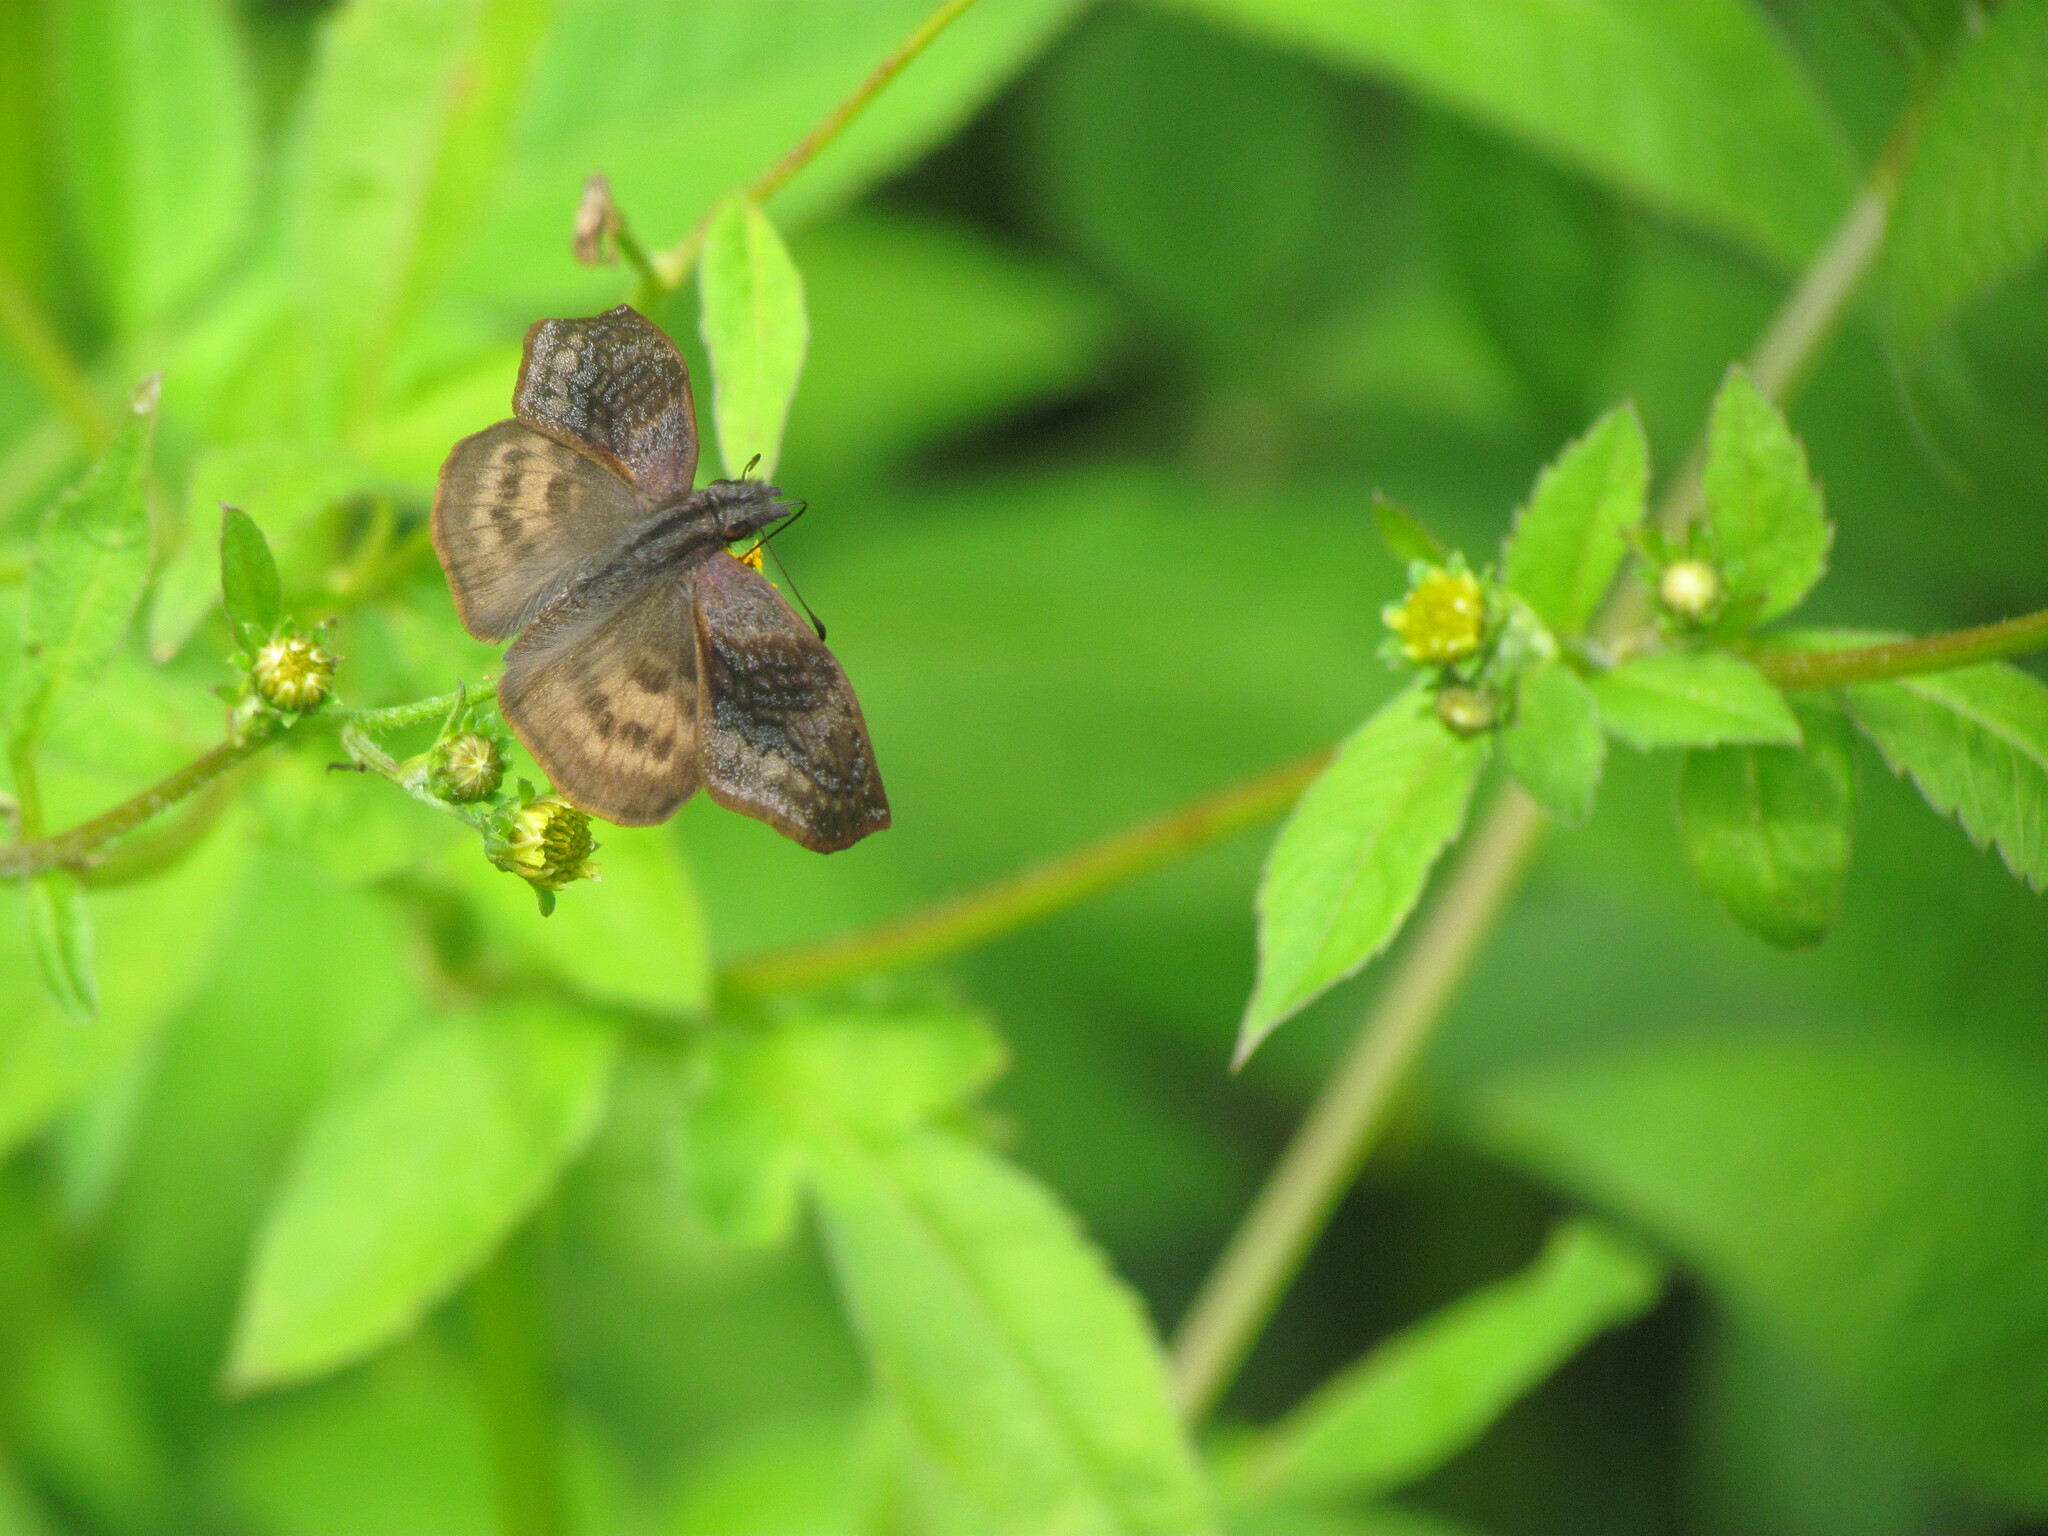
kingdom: Animalia
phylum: Arthropoda
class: Insecta
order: Lepidoptera
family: Hesperiidae
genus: Theagenes
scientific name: Theagenes dichrous
